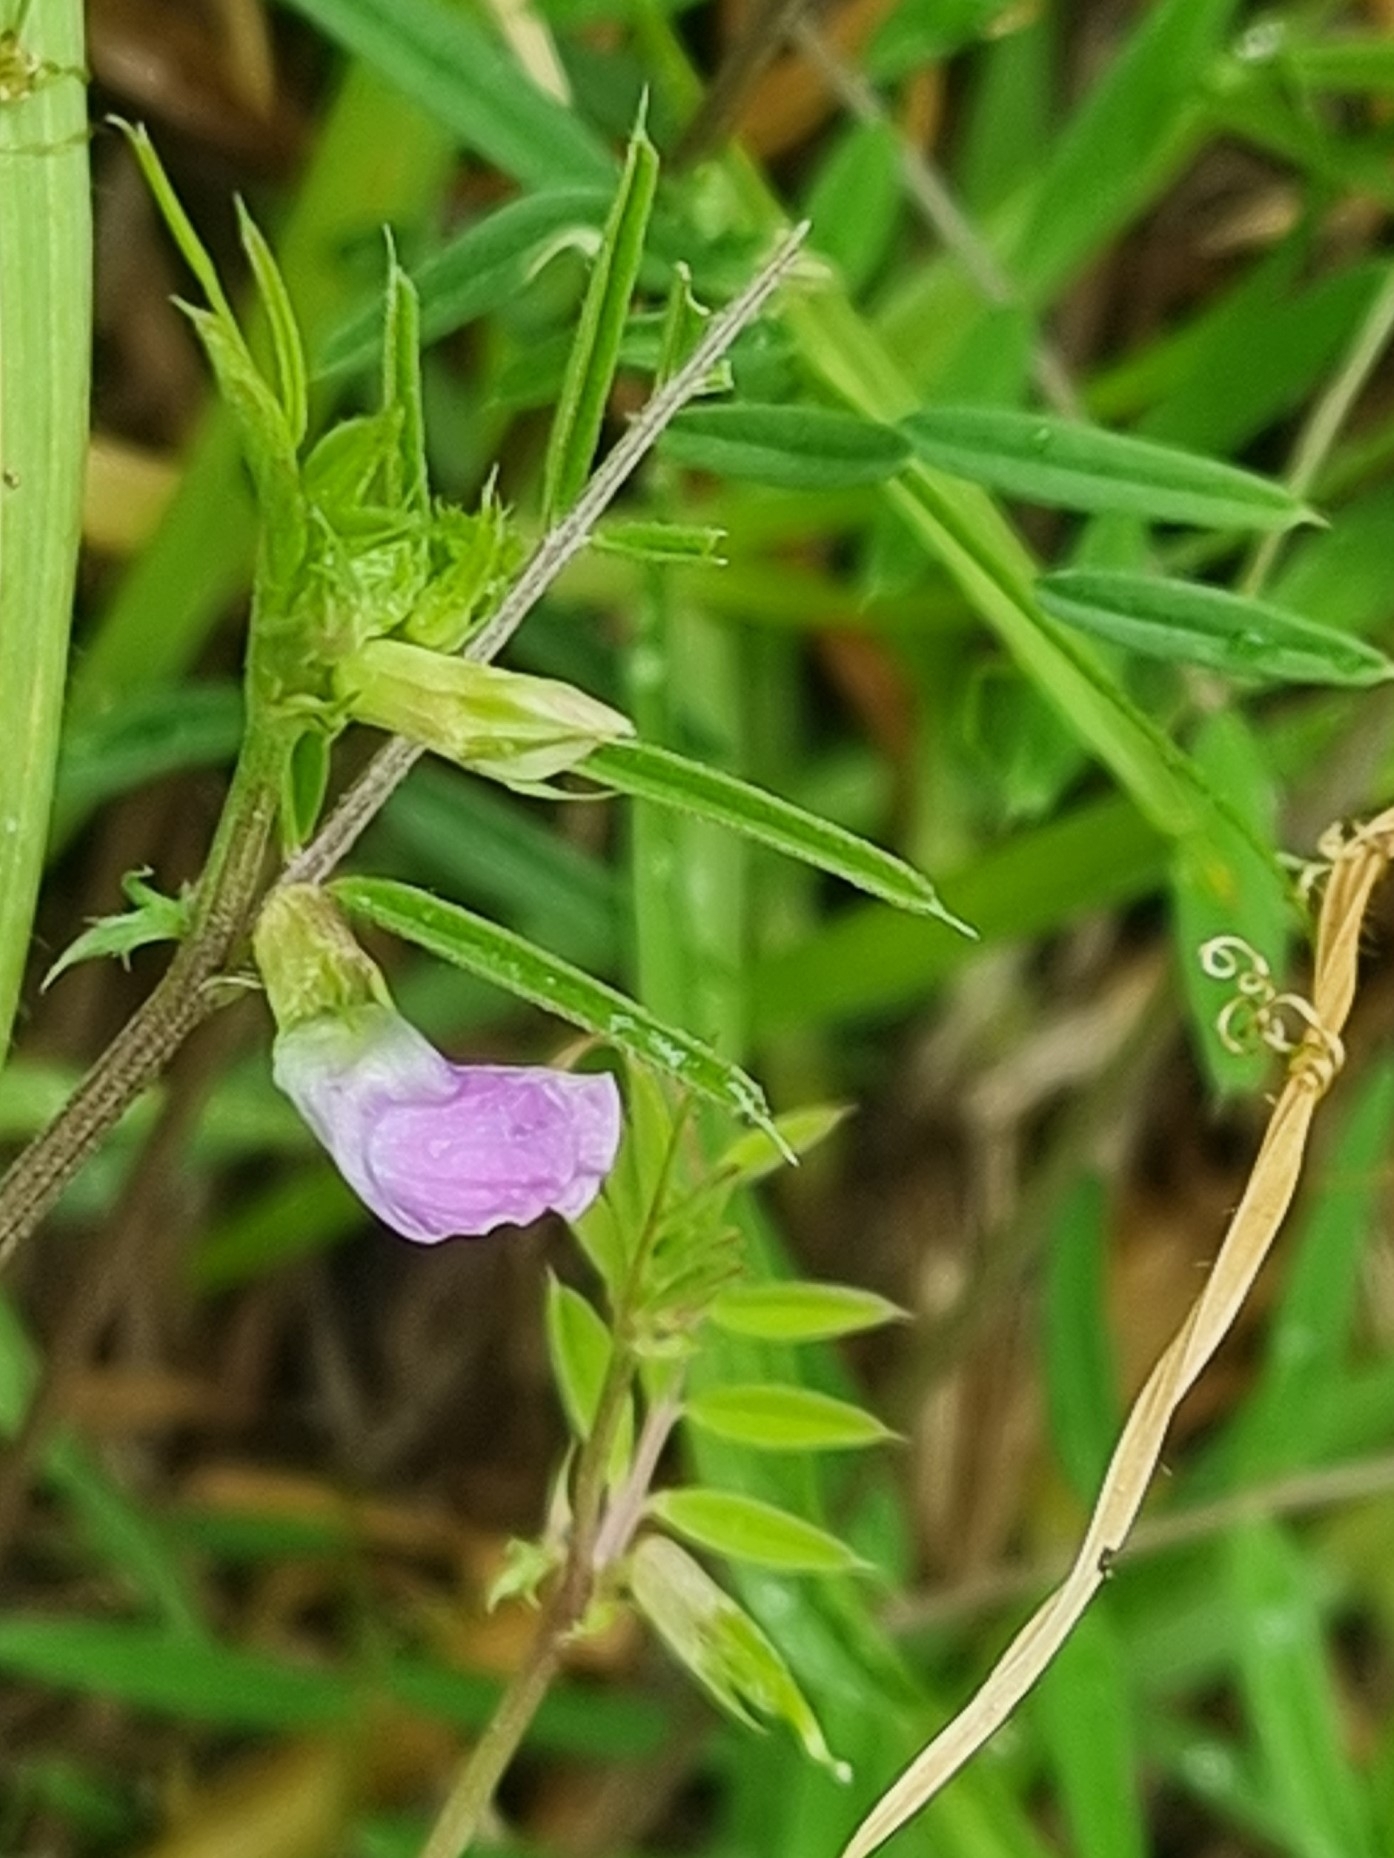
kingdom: Plantae
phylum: Tracheophyta
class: Magnoliopsida
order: Fabales
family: Fabaceae
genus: Vicia
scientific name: Vicia sativa
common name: Garden vetch
